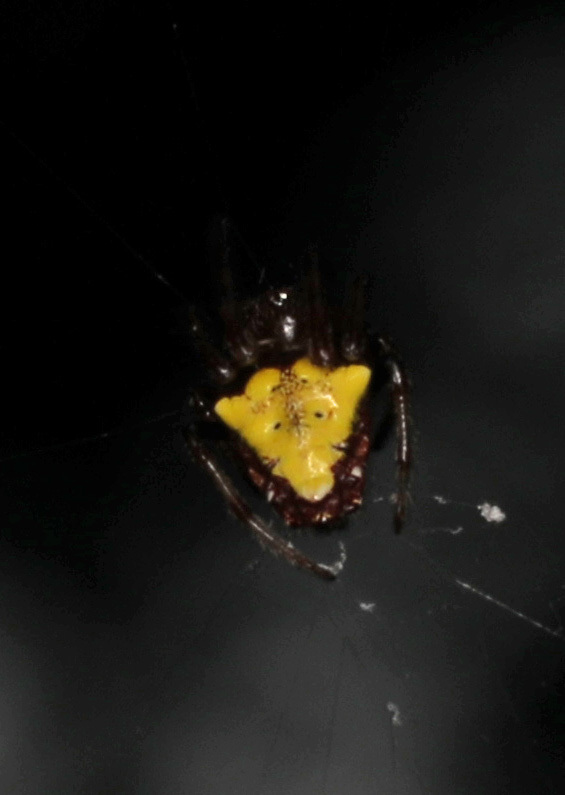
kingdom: Animalia
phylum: Arthropoda
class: Arachnida
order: Araneae
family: Araneidae
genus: Verrucosa
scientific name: Verrucosa arenata
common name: Orb weavers
